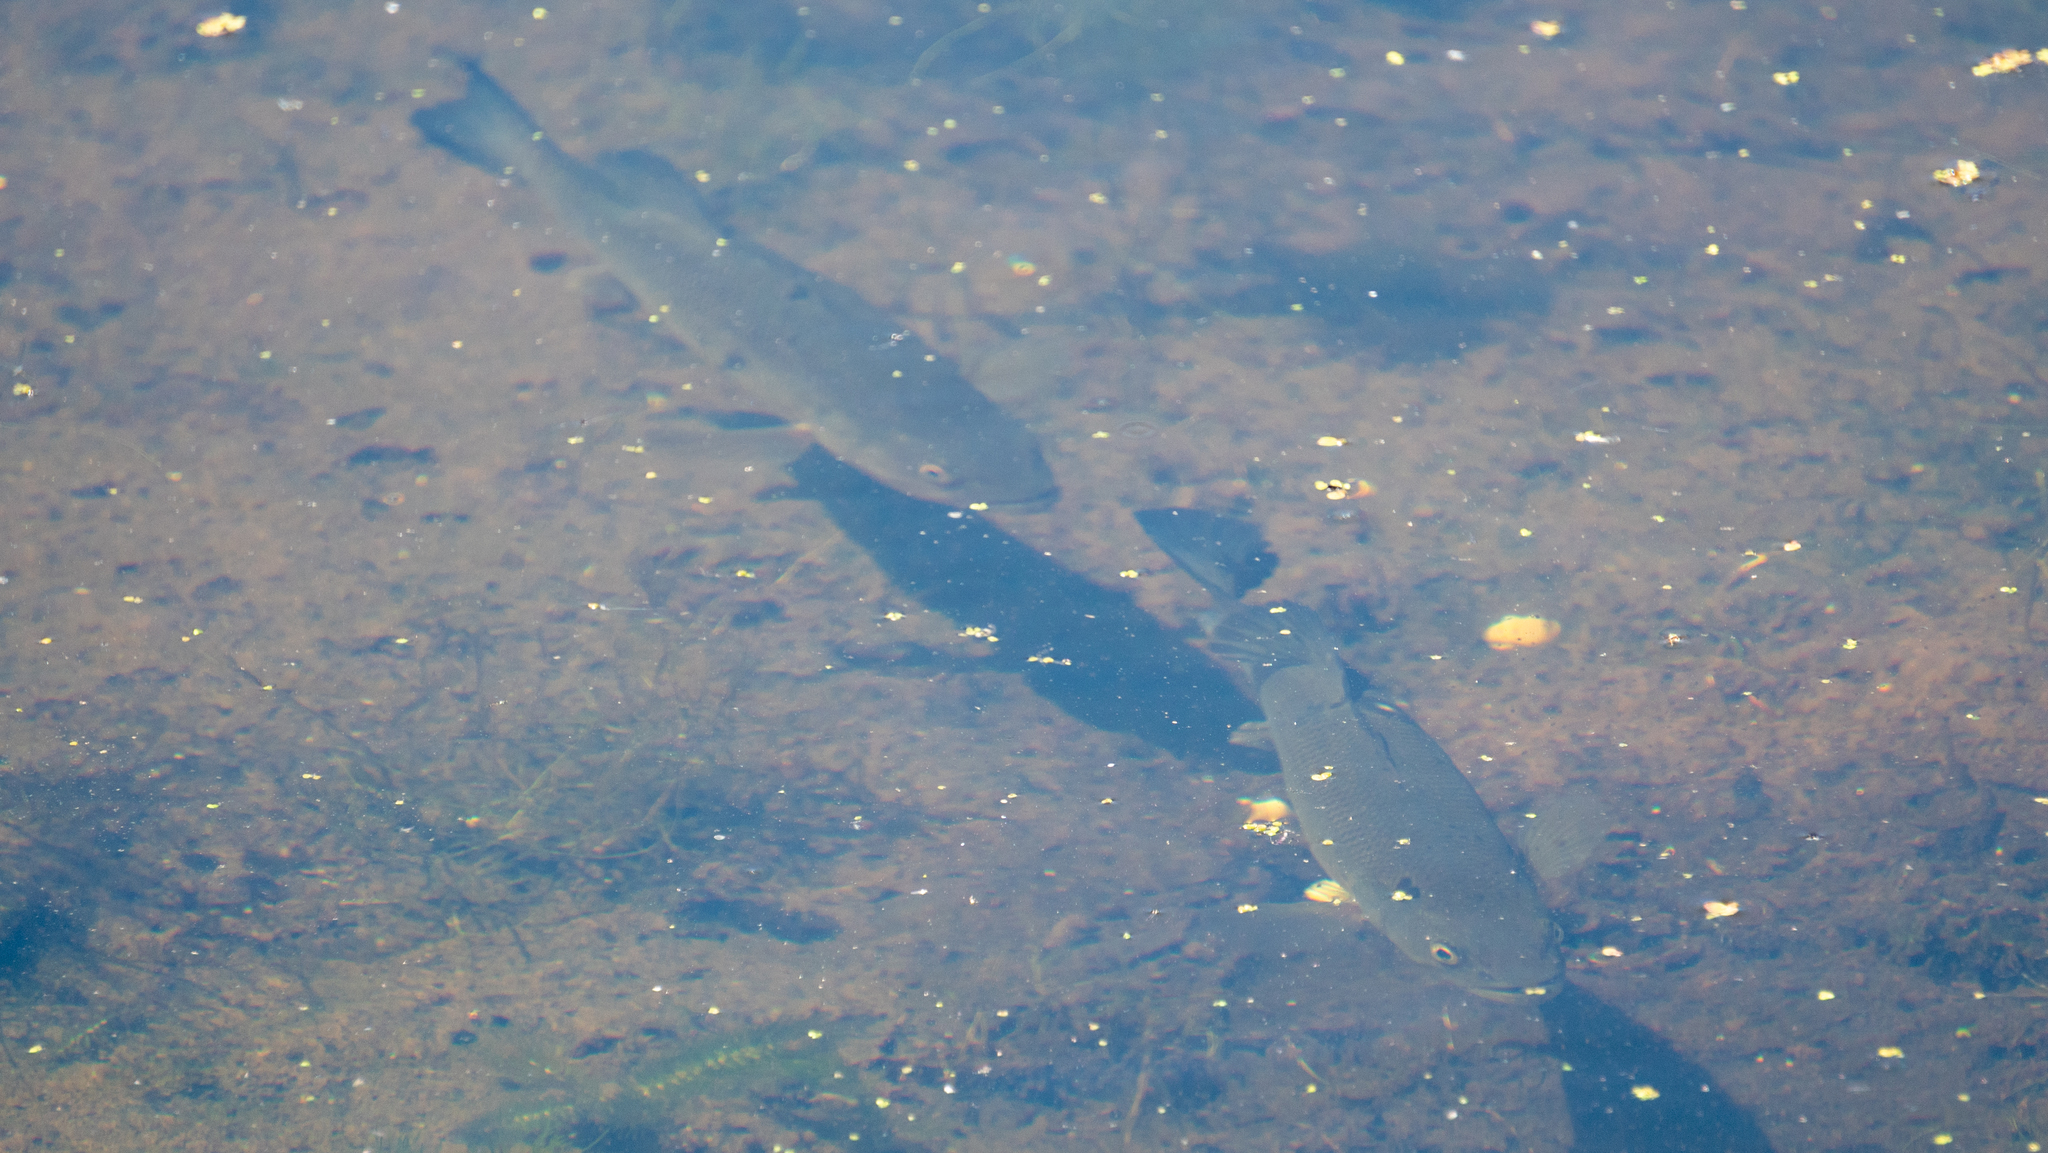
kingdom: Animalia
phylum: Chordata
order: Perciformes
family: Centrarchidae
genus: Micropterus
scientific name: Micropterus
